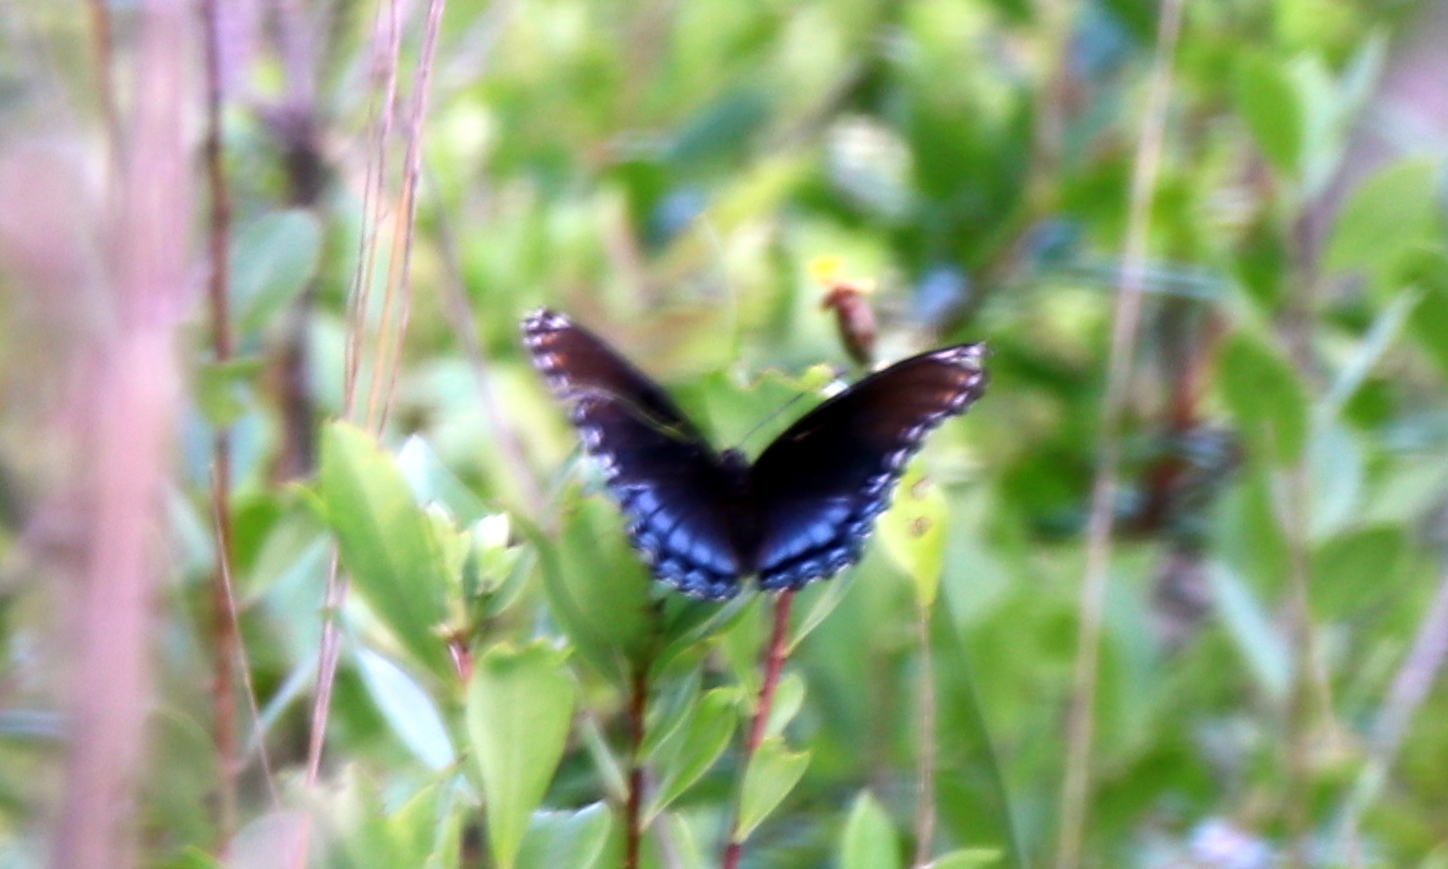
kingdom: Animalia
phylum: Arthropoda
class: Insecta
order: Lepidoptera
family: Nymphalidae
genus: Limenitis
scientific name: Limenitis astyanax
